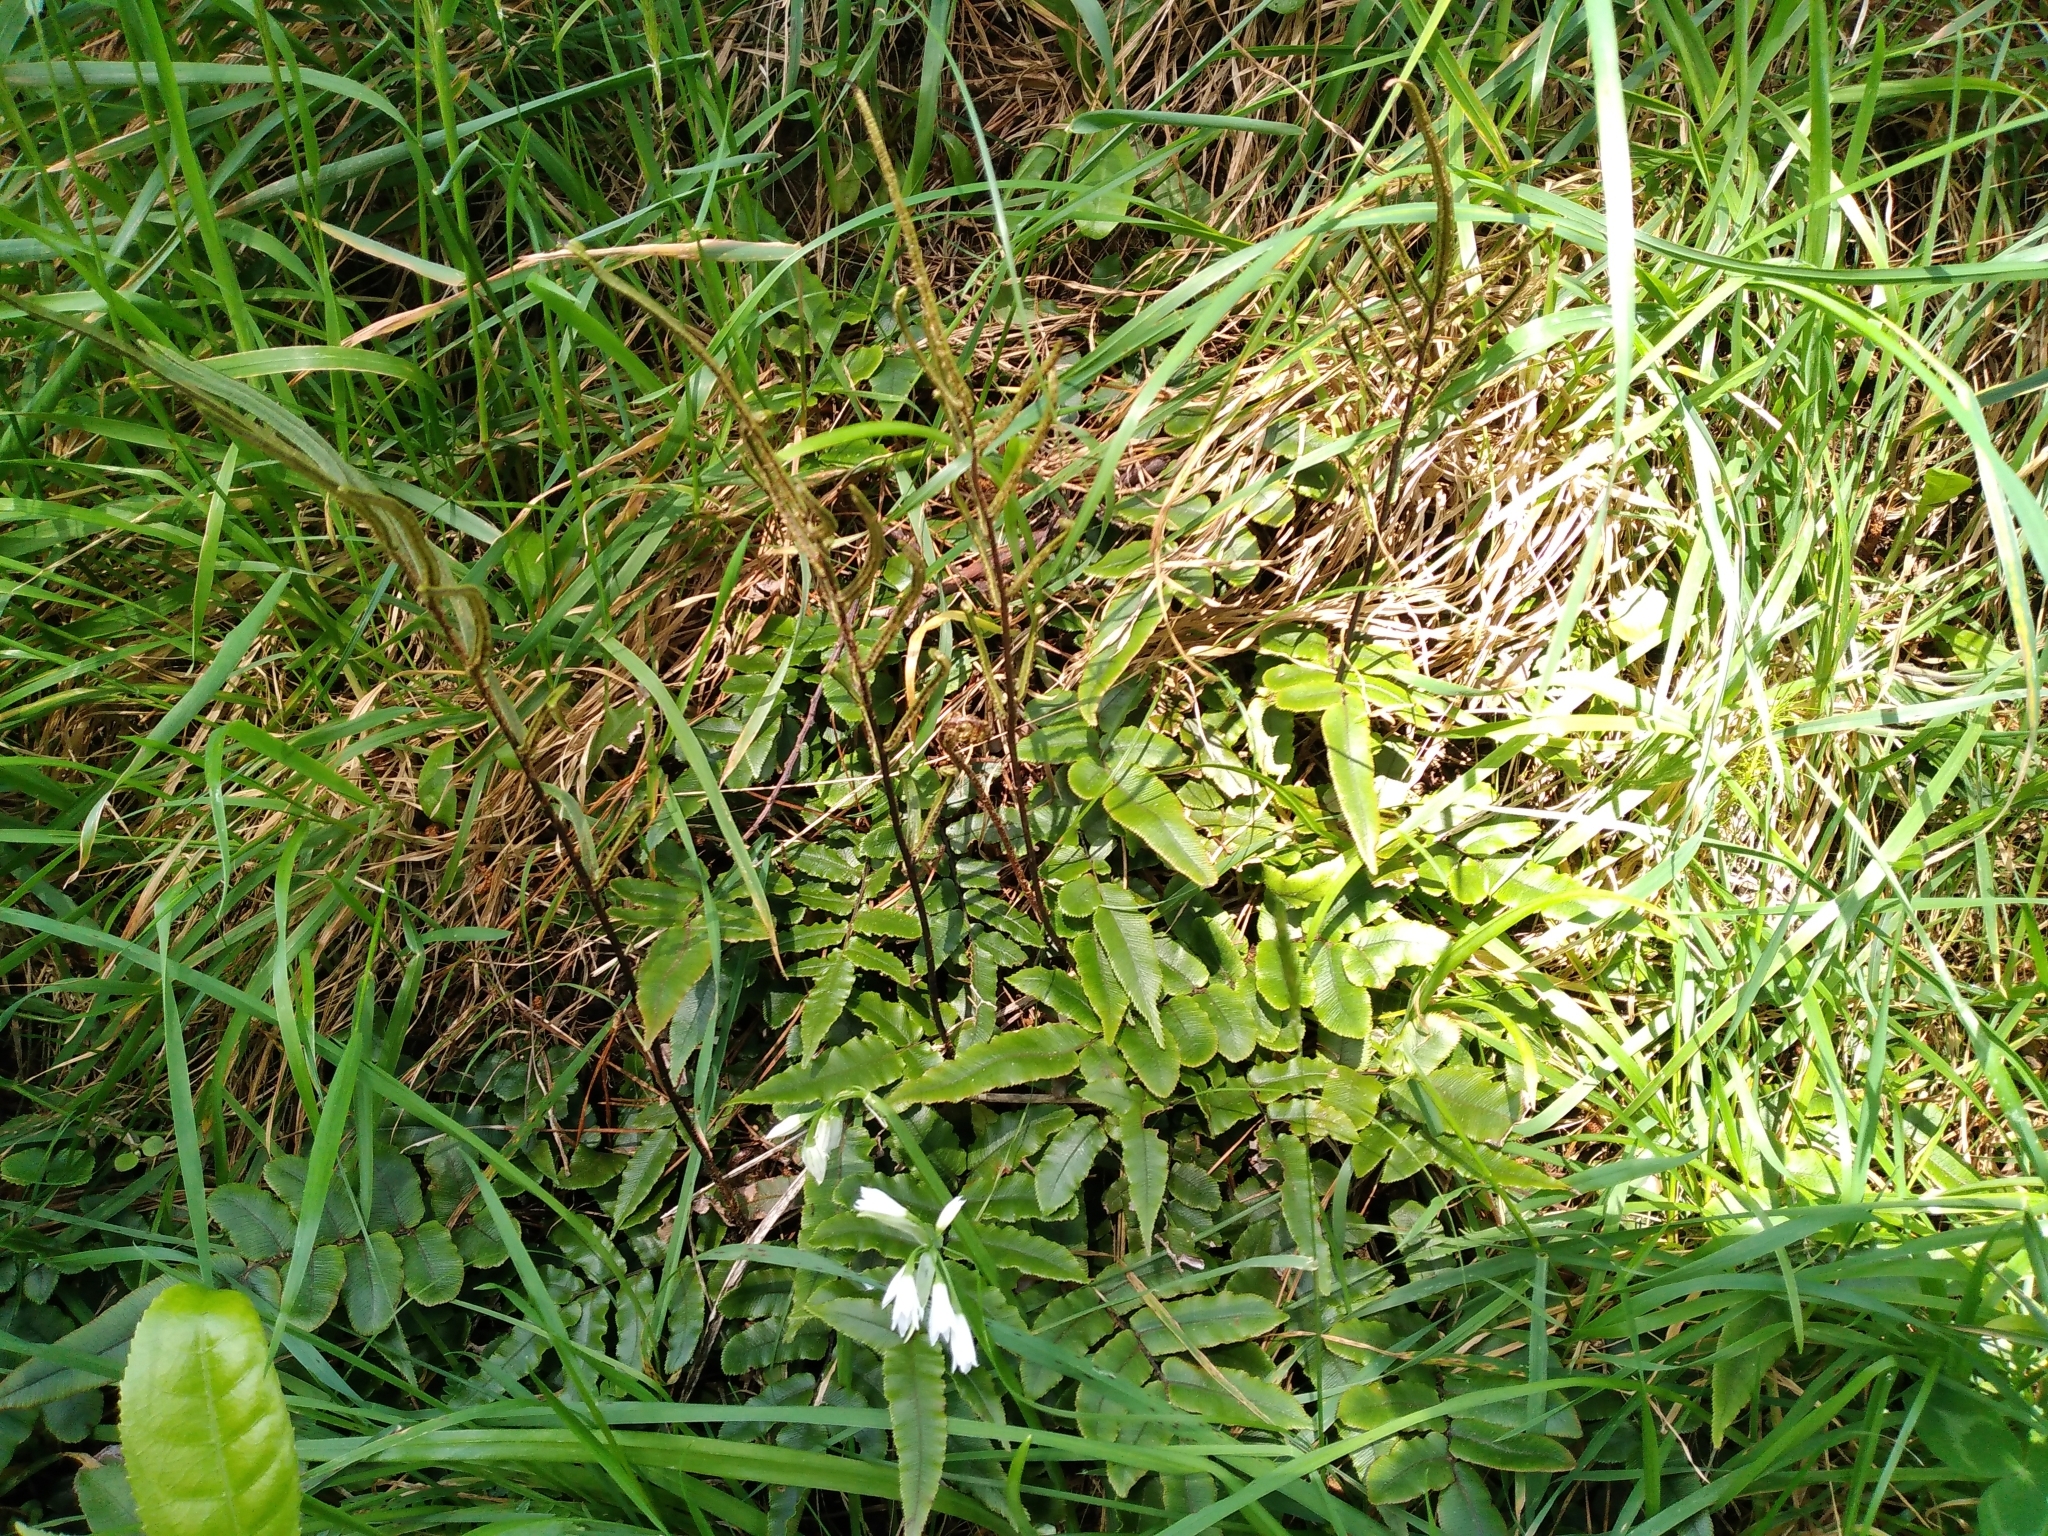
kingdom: Plantae
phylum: Tracheophyta
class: Polypodiopsida
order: Polypodiales
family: Blechnaceae
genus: Parablechnum
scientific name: Parablechnum procerum
